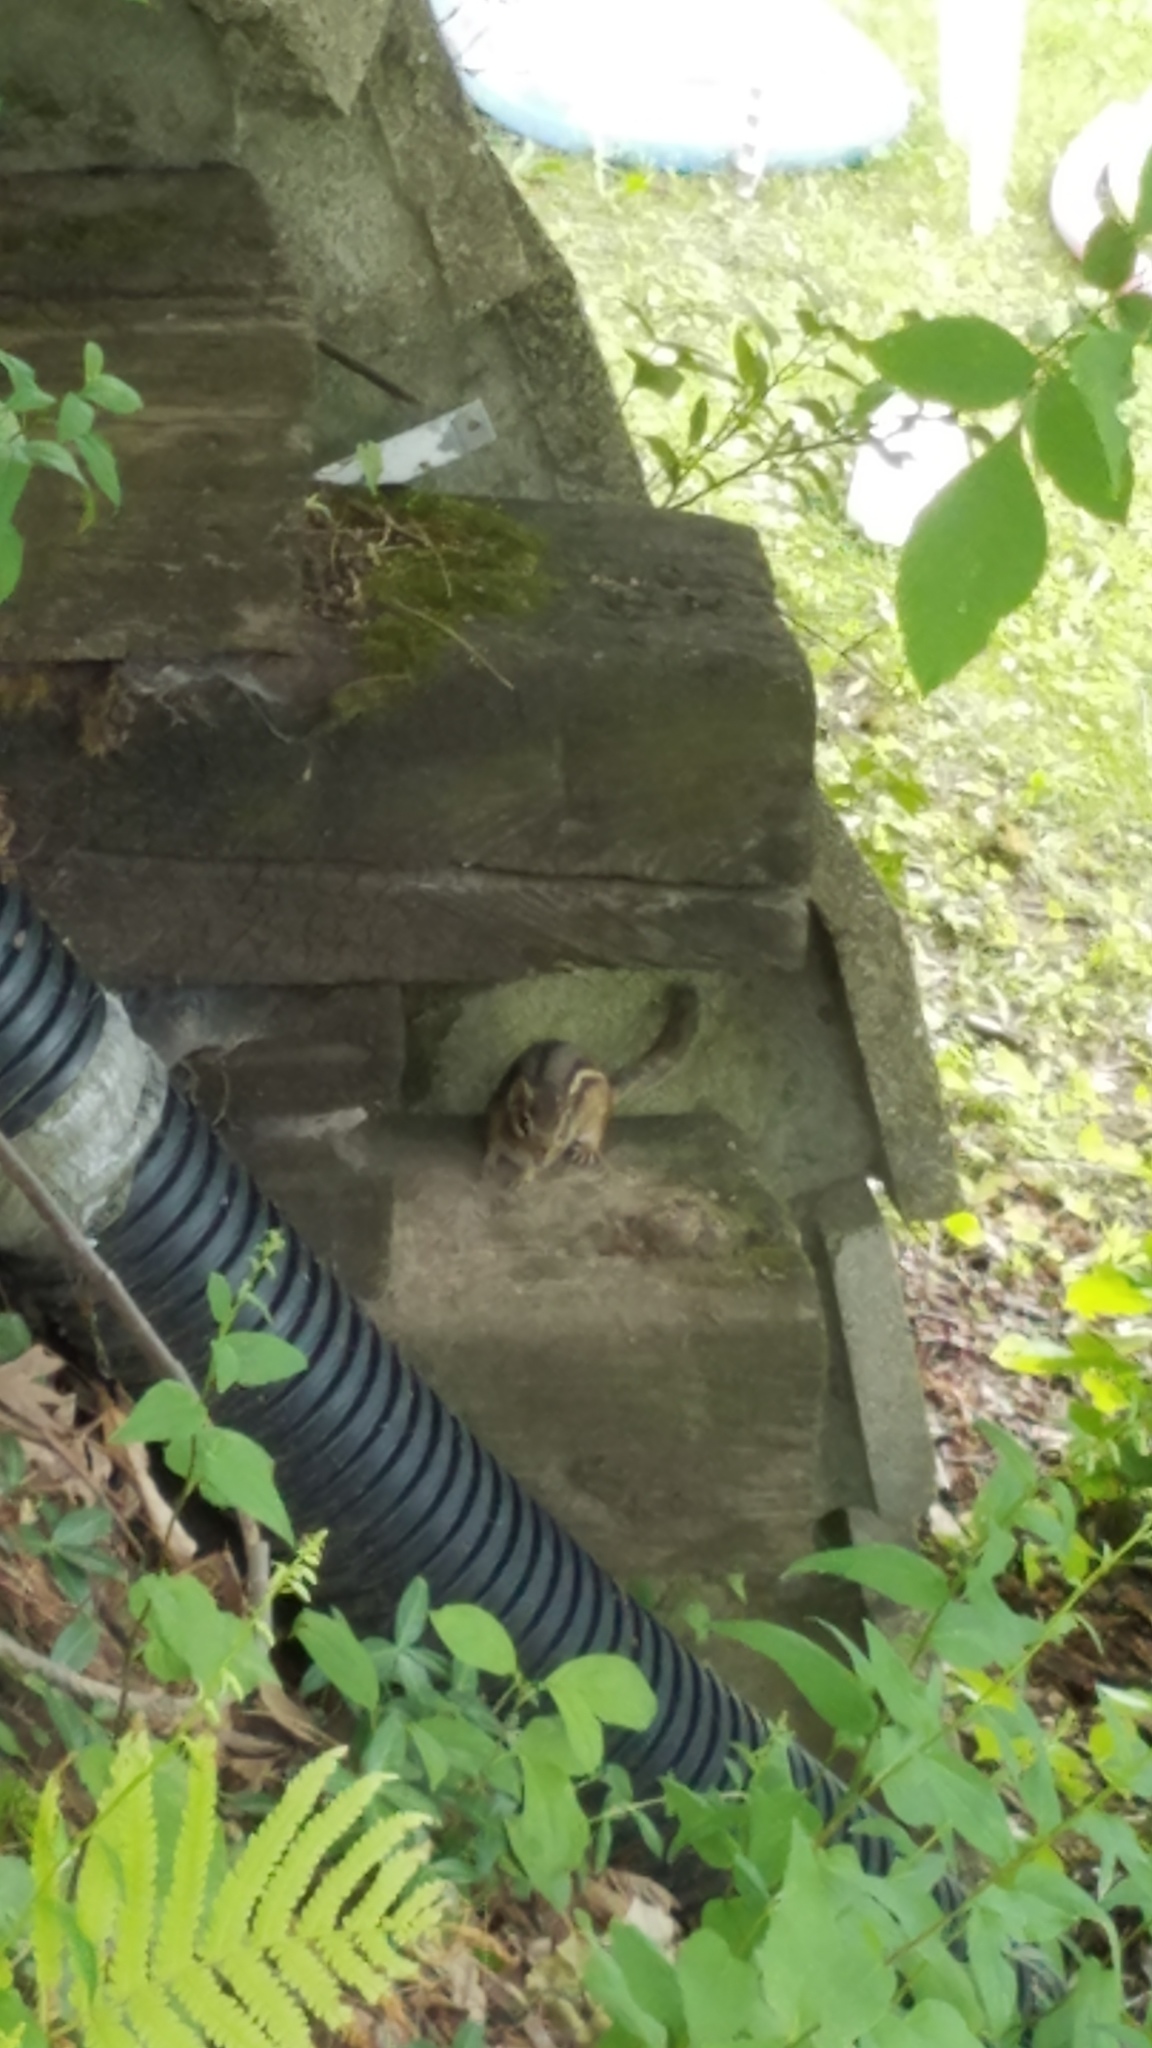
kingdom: Animalia
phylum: Chordata
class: Mammalia
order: Rodentia
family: Sciuridae
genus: Tamias
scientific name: Tamias striatus
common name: Eastern chipmunk
